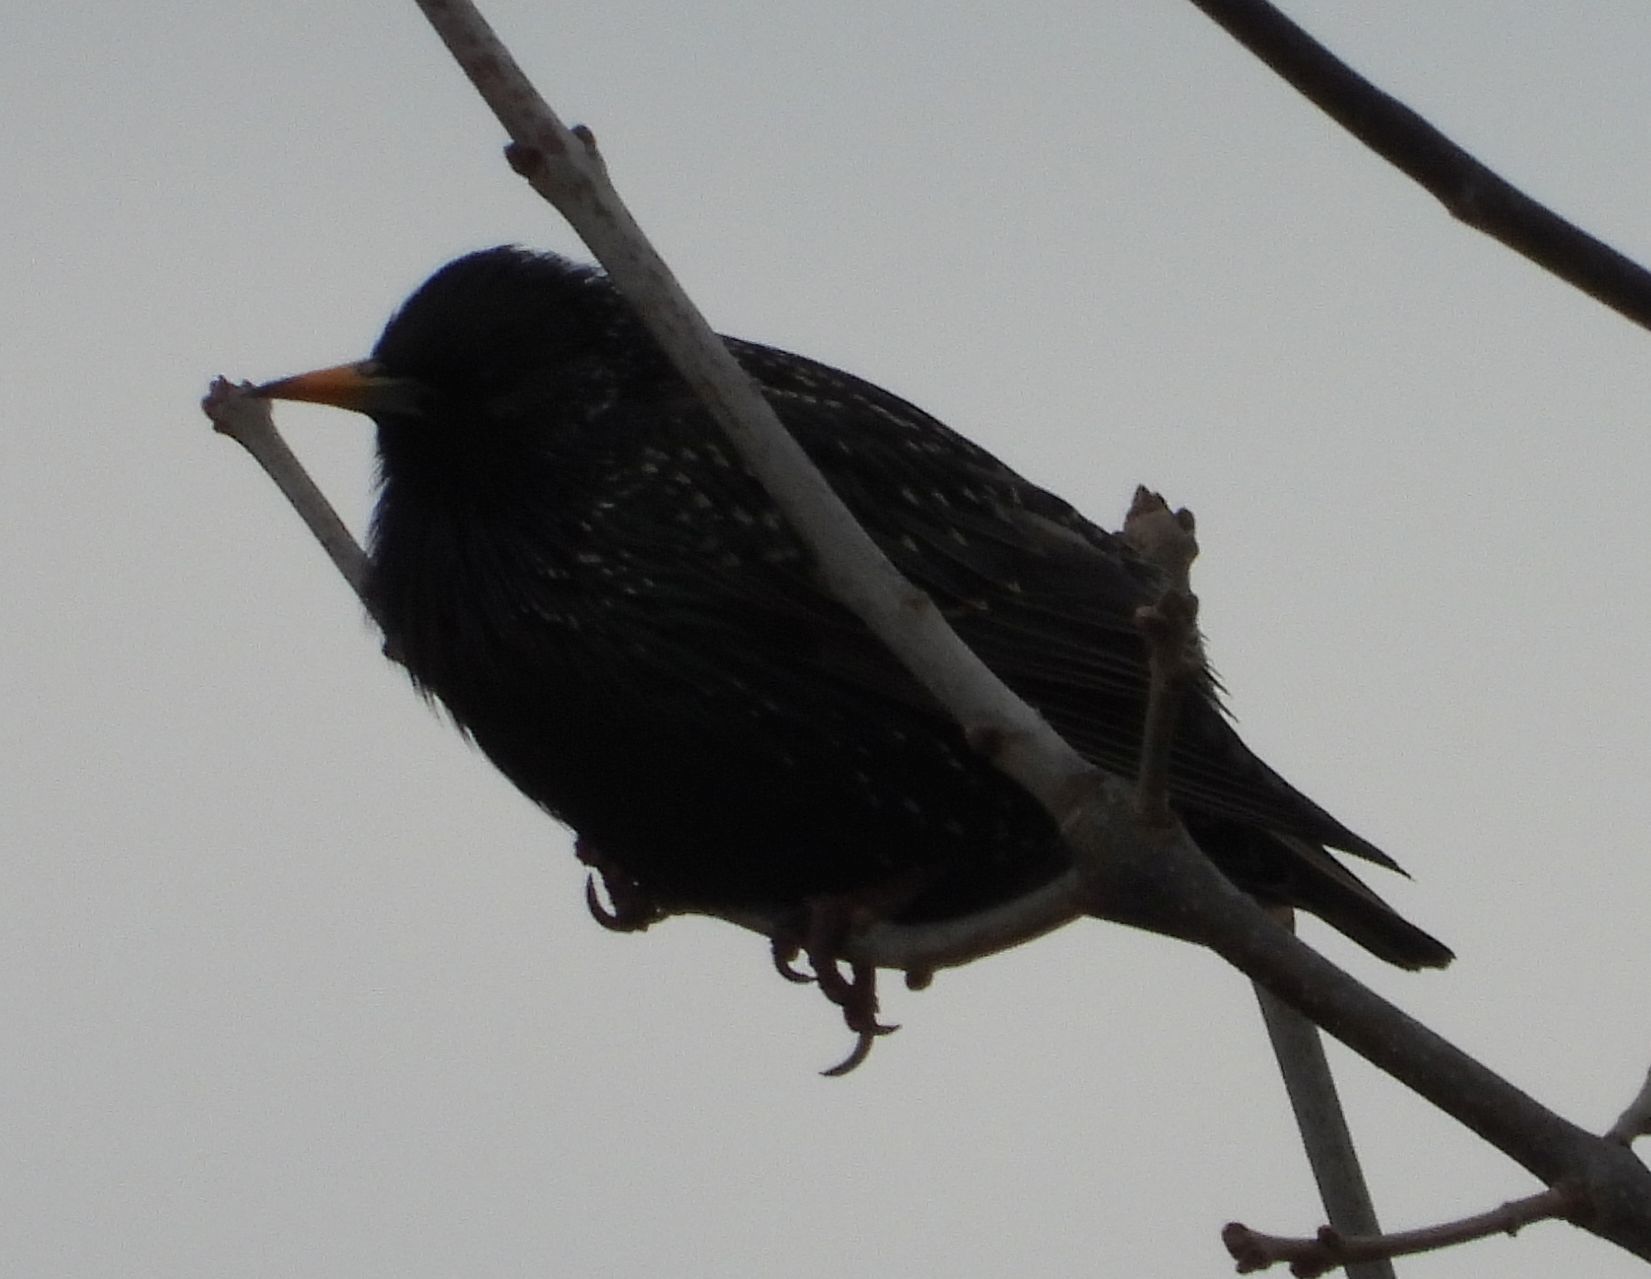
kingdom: Animalia
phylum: Chordata
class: Aves
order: Passeriformes
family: Sturnidae
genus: Sturnus
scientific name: Sturnus vulgaris
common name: Common starling
